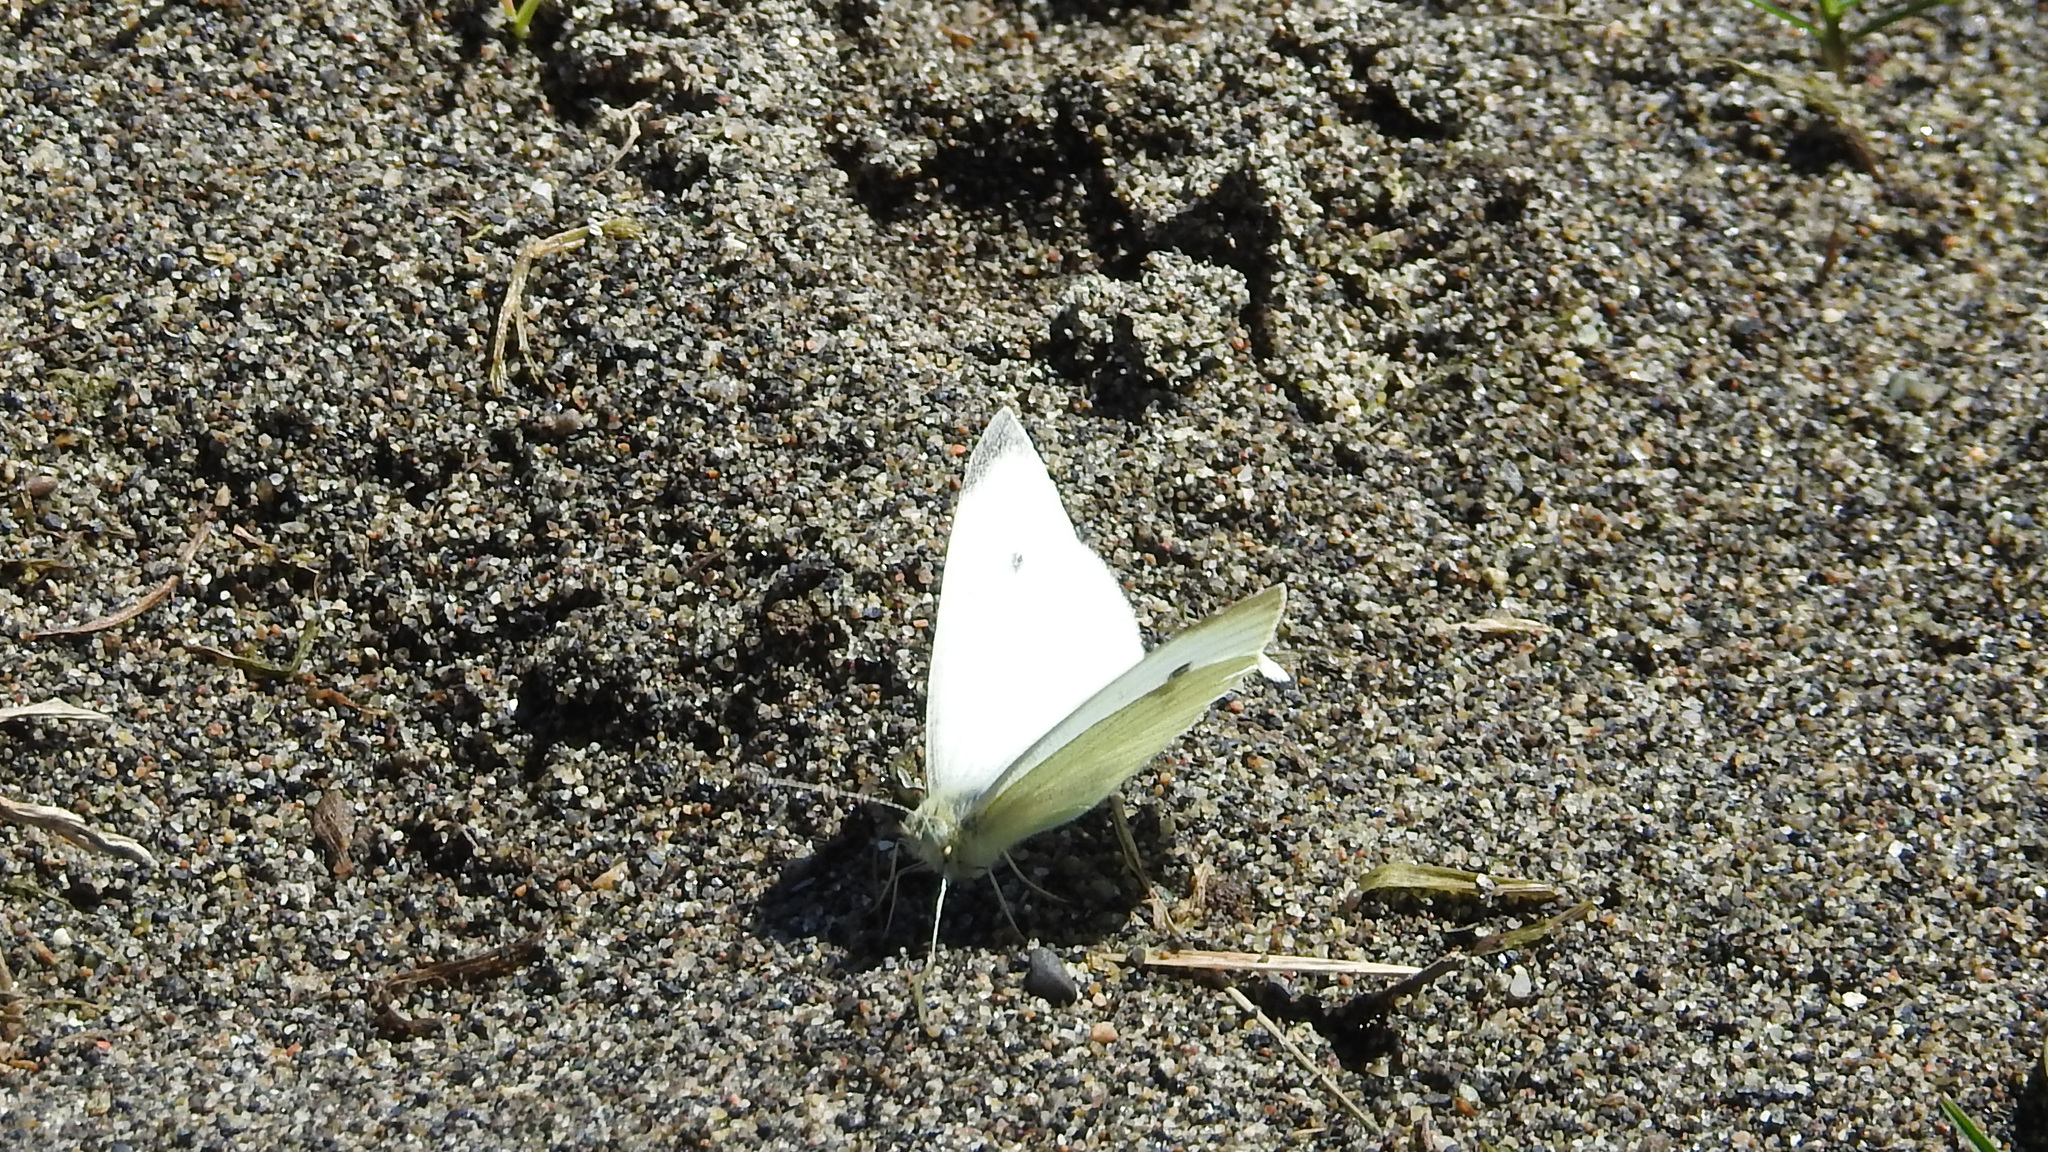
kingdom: Animalia
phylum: Arthropoda
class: Insecta
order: Lepidoptera
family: Pieridae
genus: Pieris
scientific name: Pieris rapae
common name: Small white
